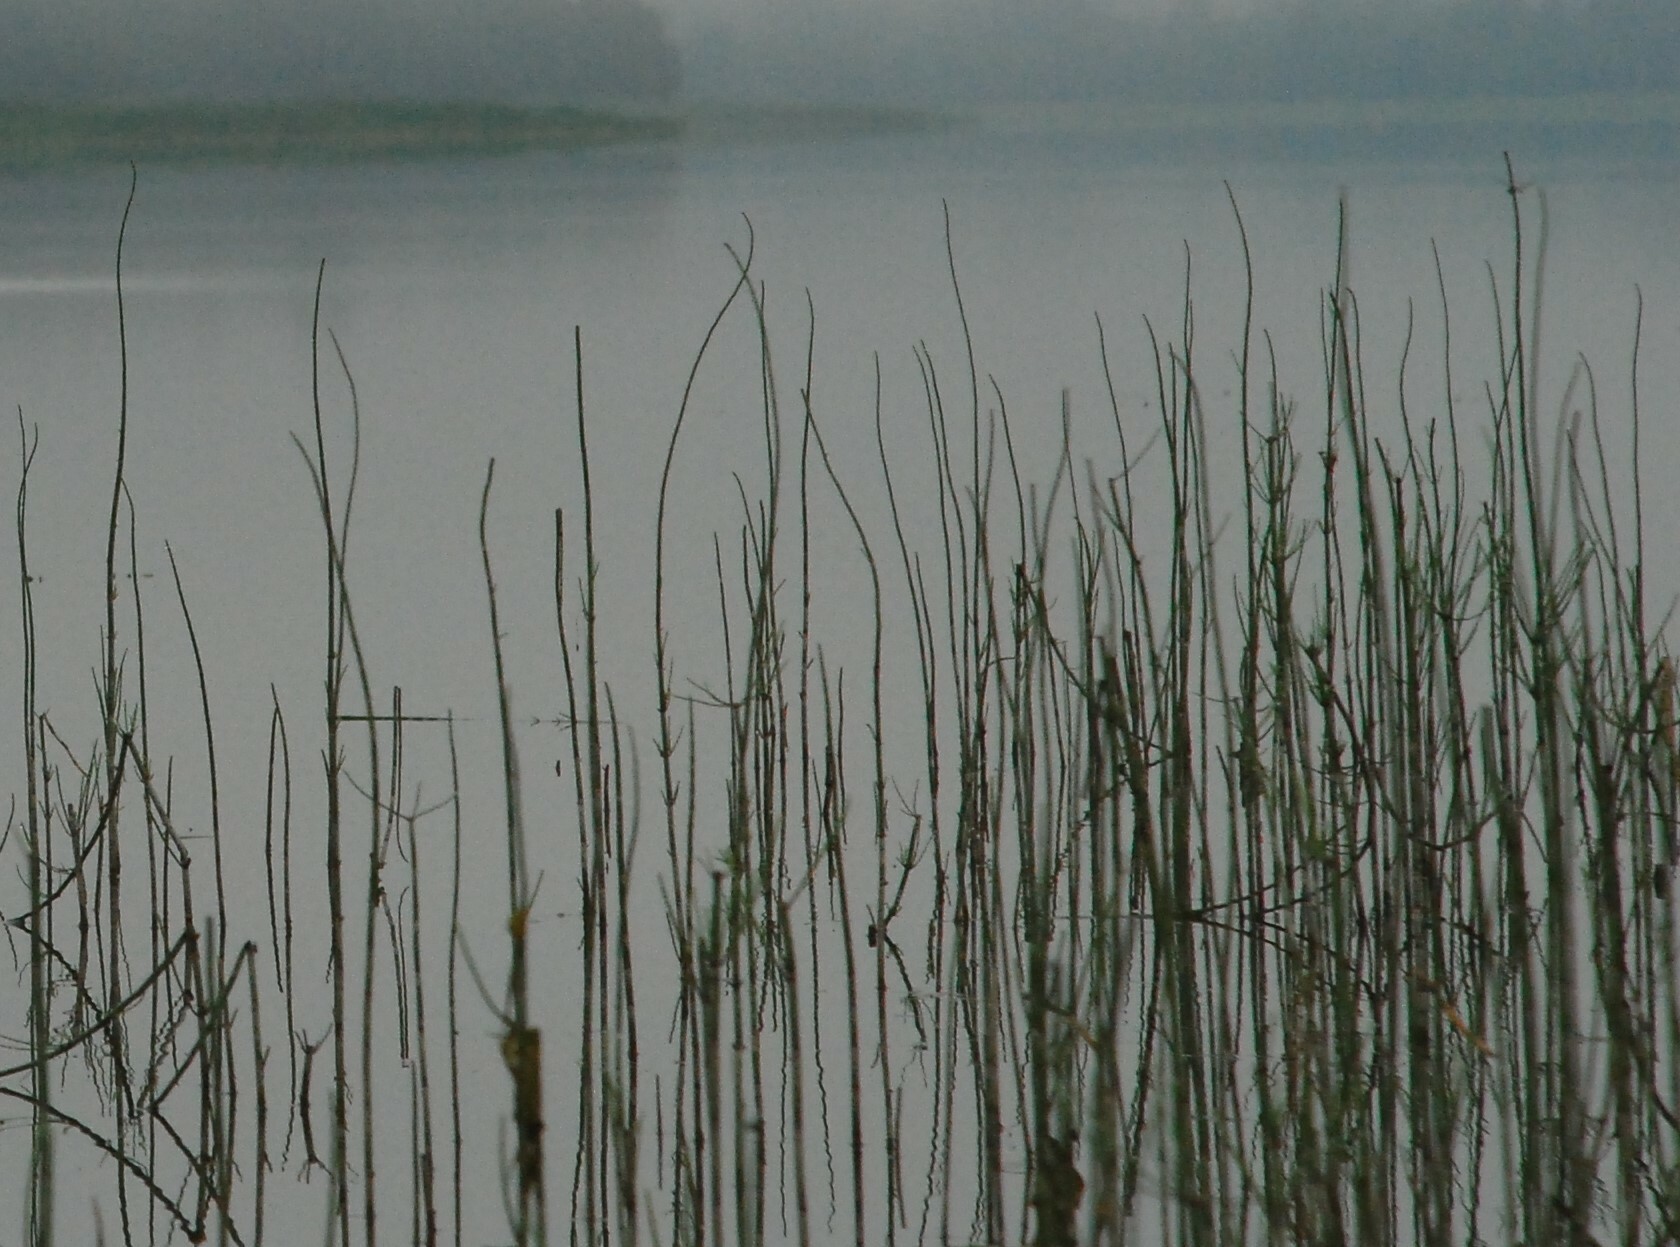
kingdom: Plantae
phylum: Tracheophyta
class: Polypodiopsida
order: Equisetales
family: Equisetaceae
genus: Equisetum
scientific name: Equisetum fluviatile
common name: Water horsetail
